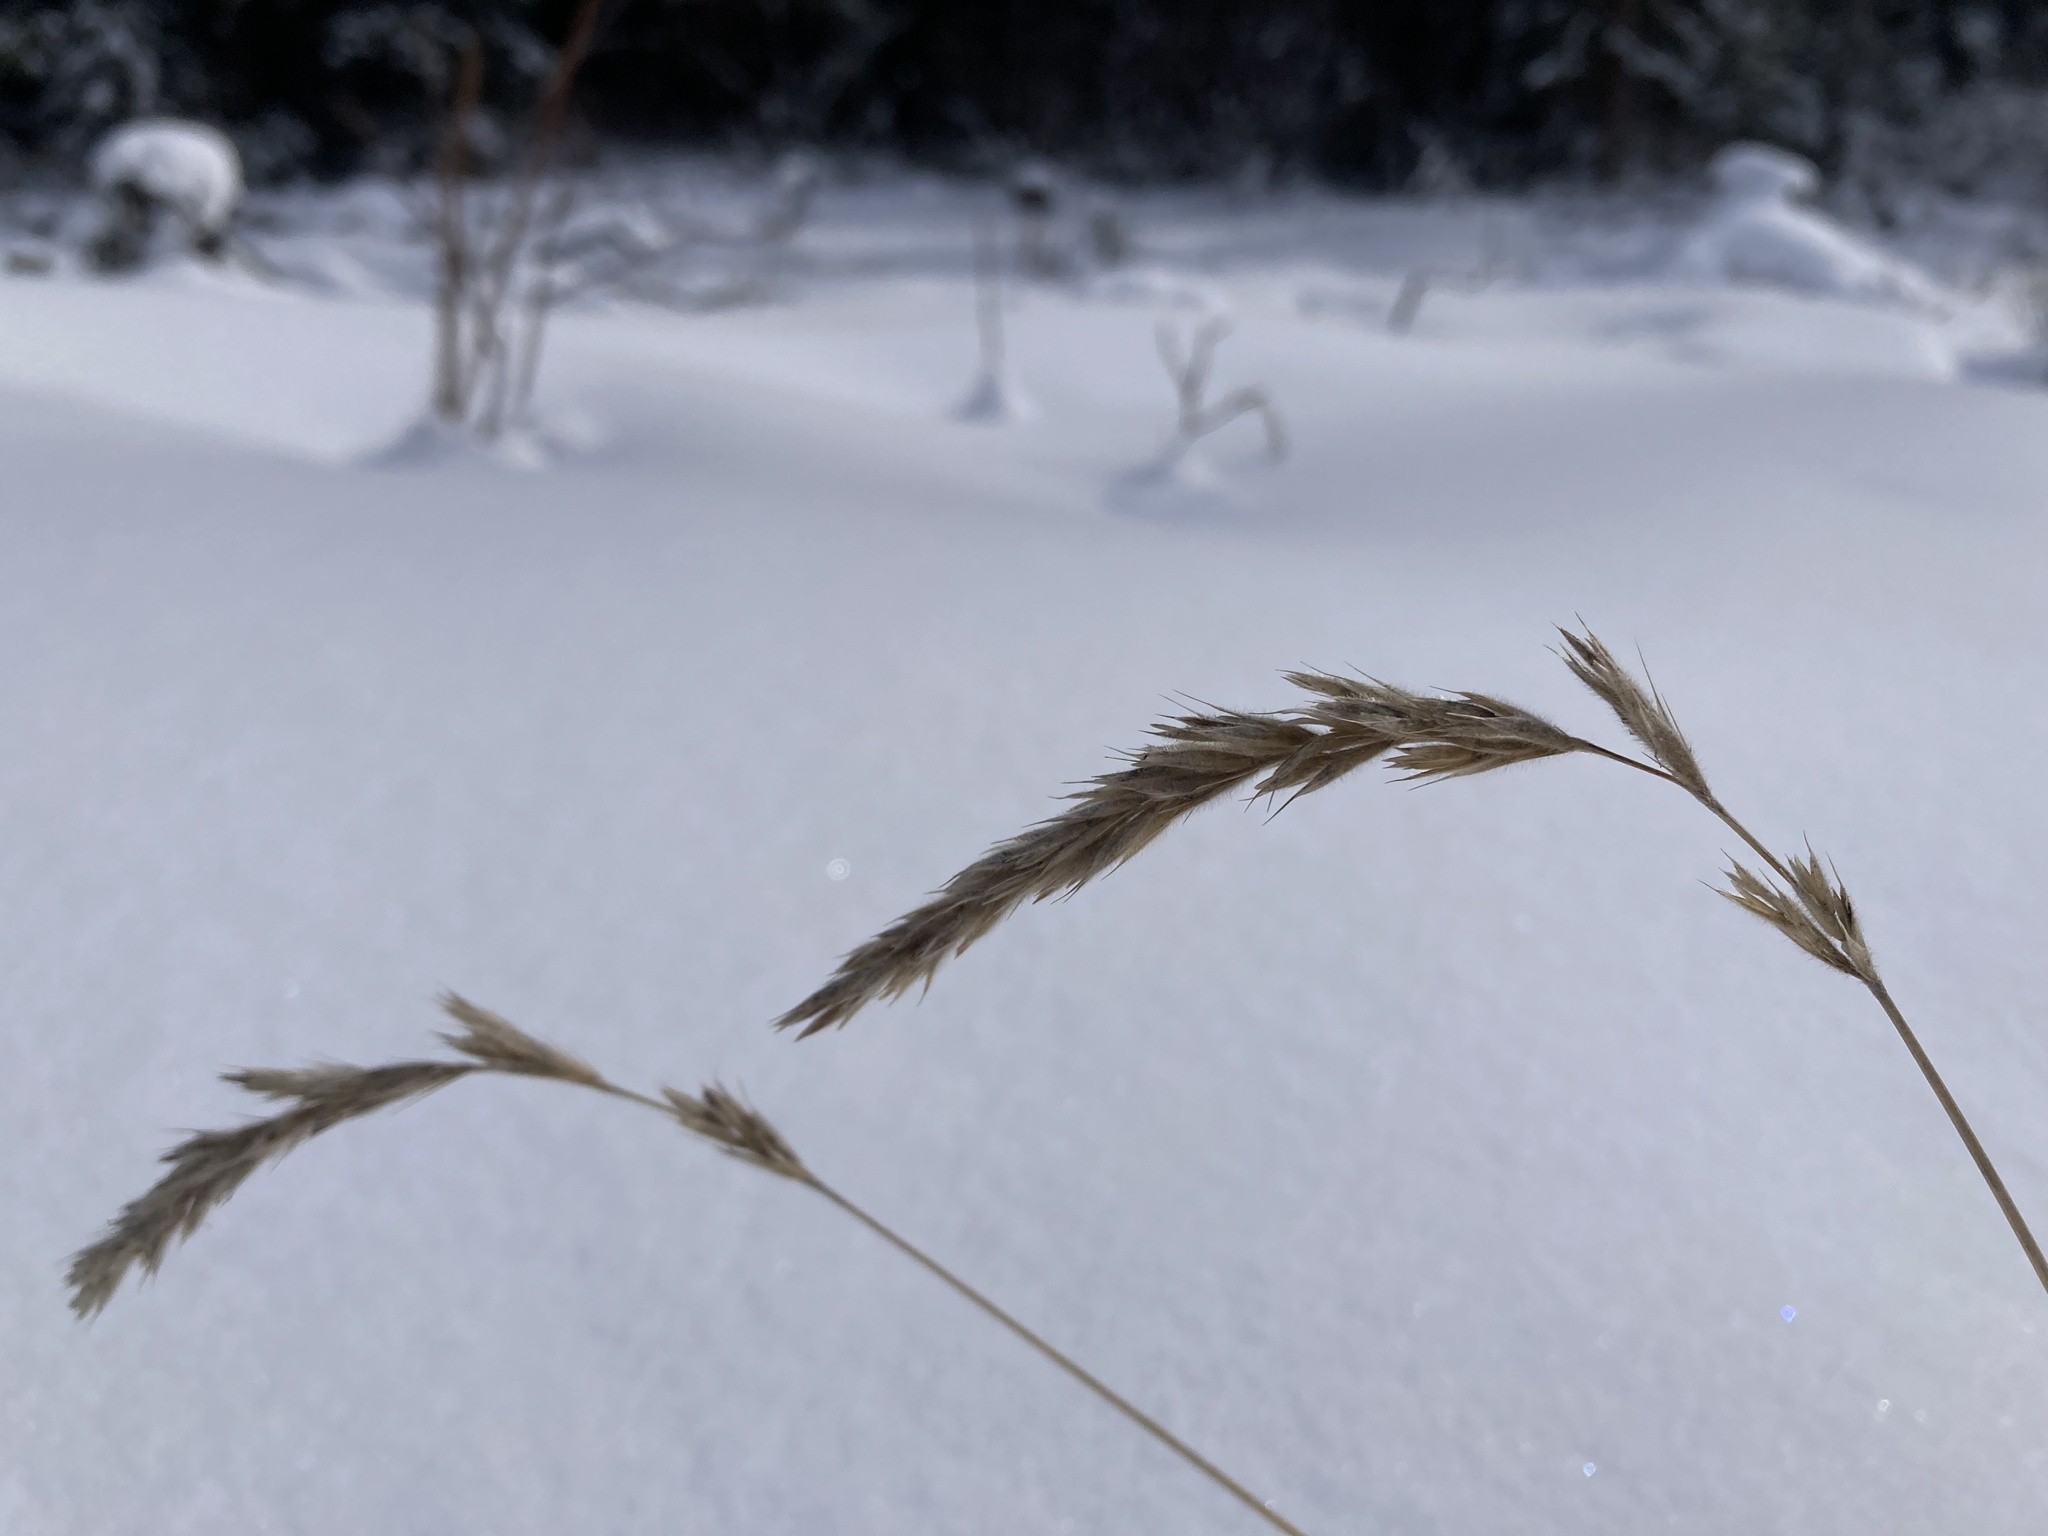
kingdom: Plantae
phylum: Tracheophyta
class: Liliopsida
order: Poales
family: Poaceae
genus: Leymus
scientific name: Leymus innovatus
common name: Boreal wild rye
